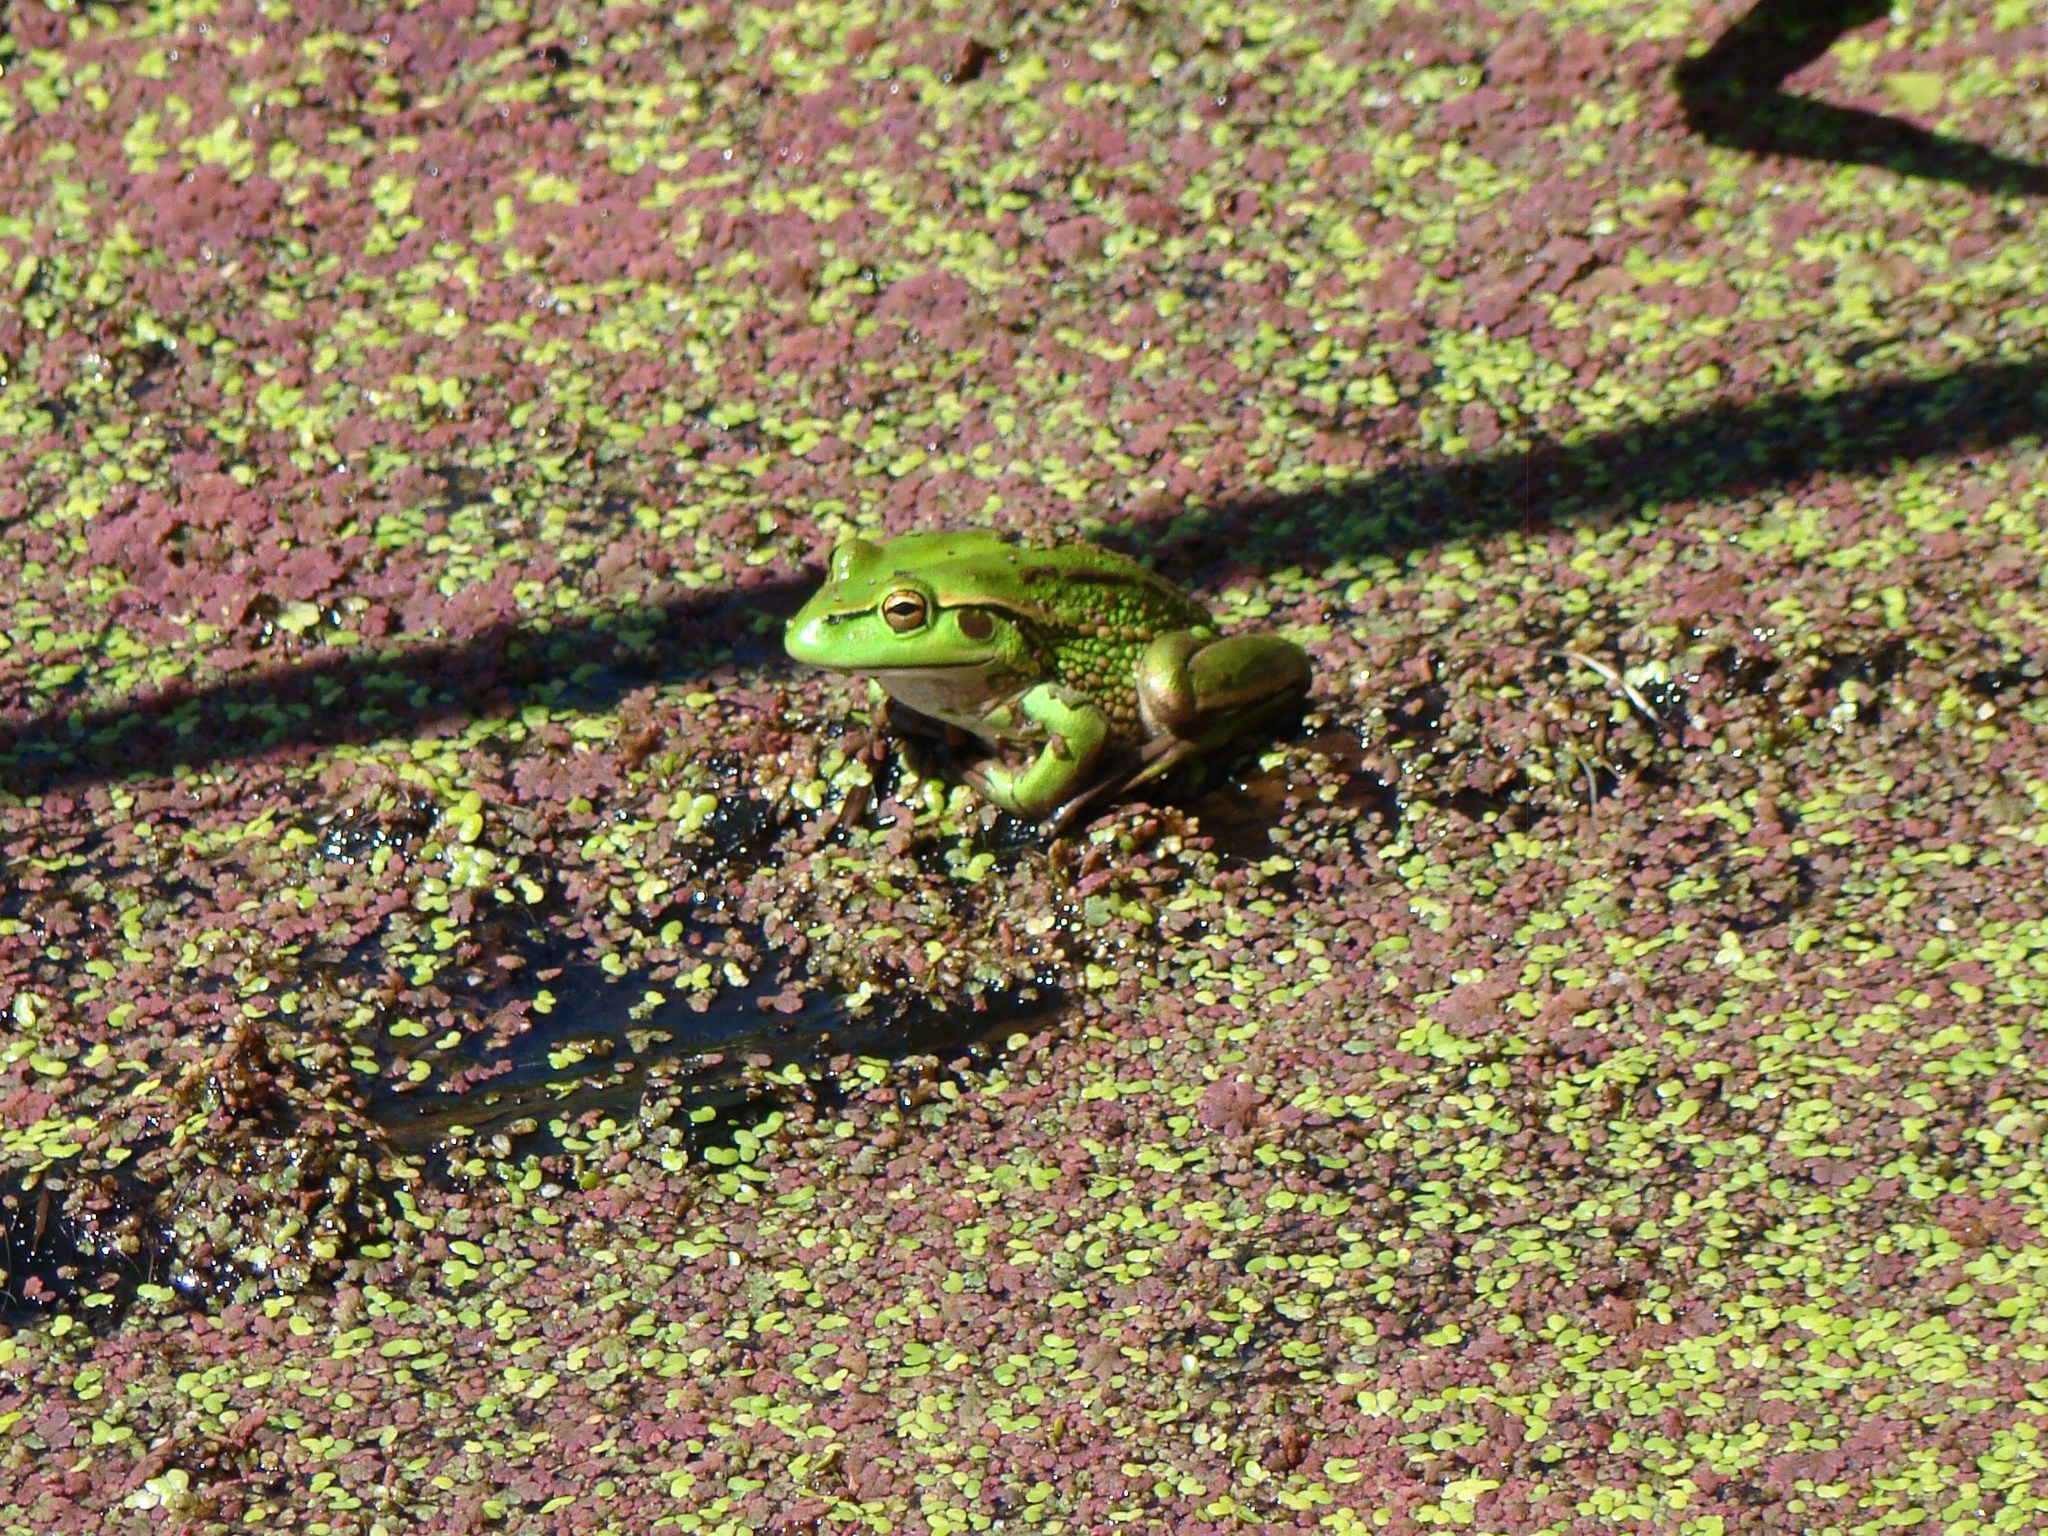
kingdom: Animalia
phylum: Chordata
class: Amphibia
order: Anura
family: Pelodryadidae
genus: Ranoidea
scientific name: Ranoidea raniformis
